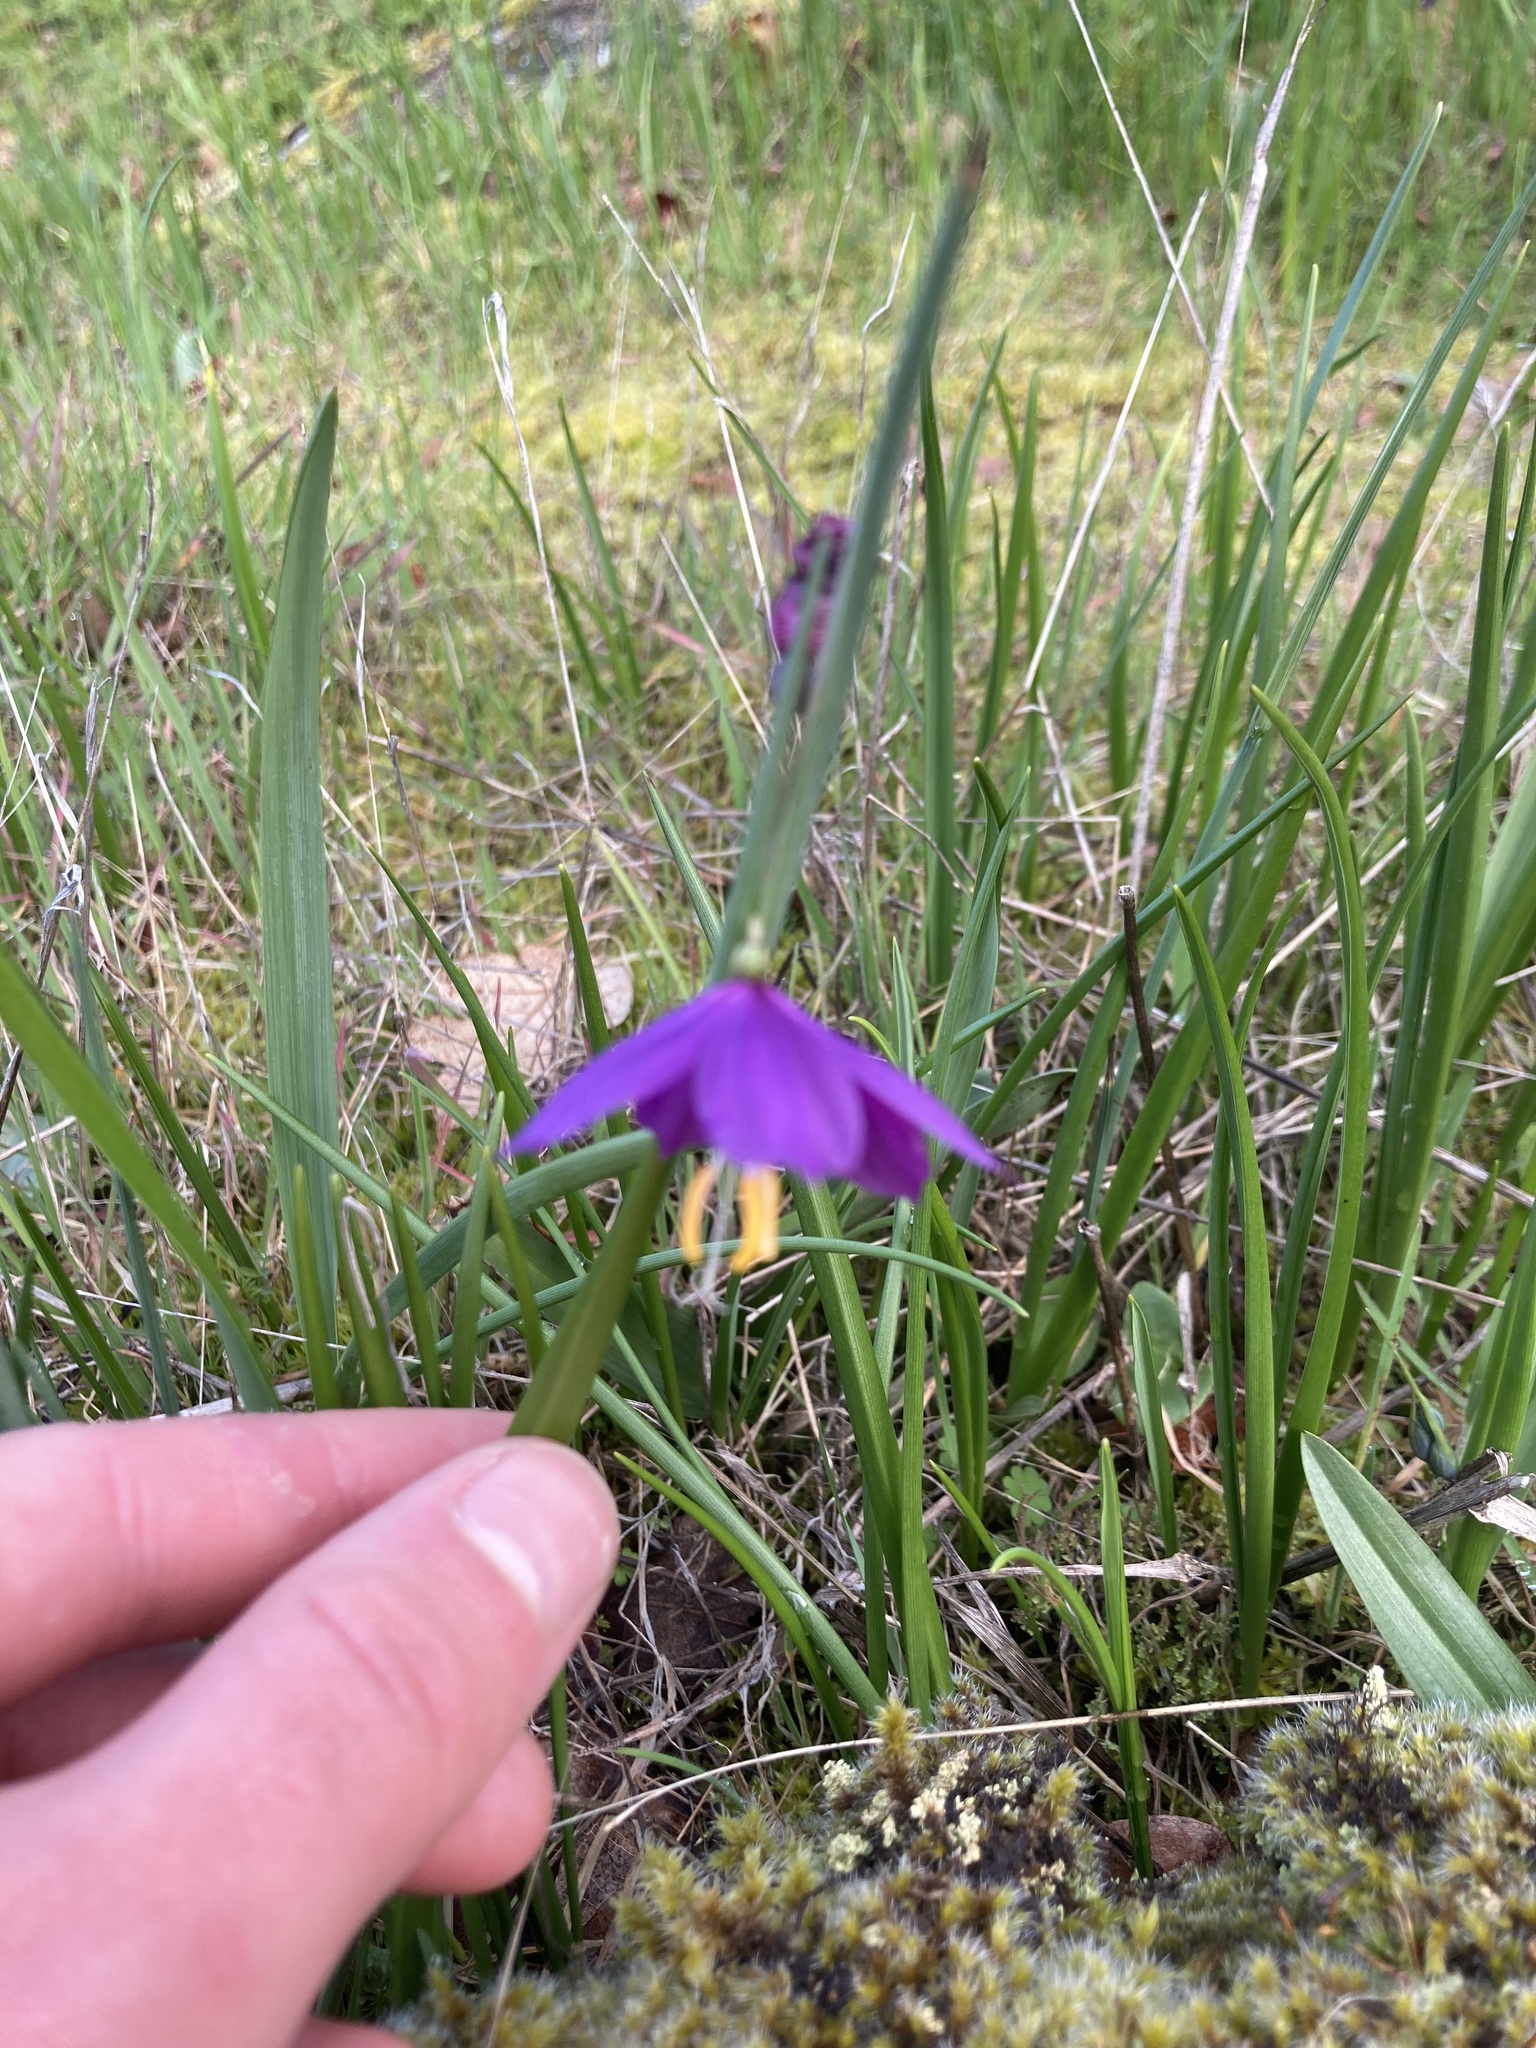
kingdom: Plantae
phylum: Tracheophyta
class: Liliopsida
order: Asparagales
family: Iridaceae
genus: Olsynium
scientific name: Olsynium douglasii
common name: Douglas' grasswidow
